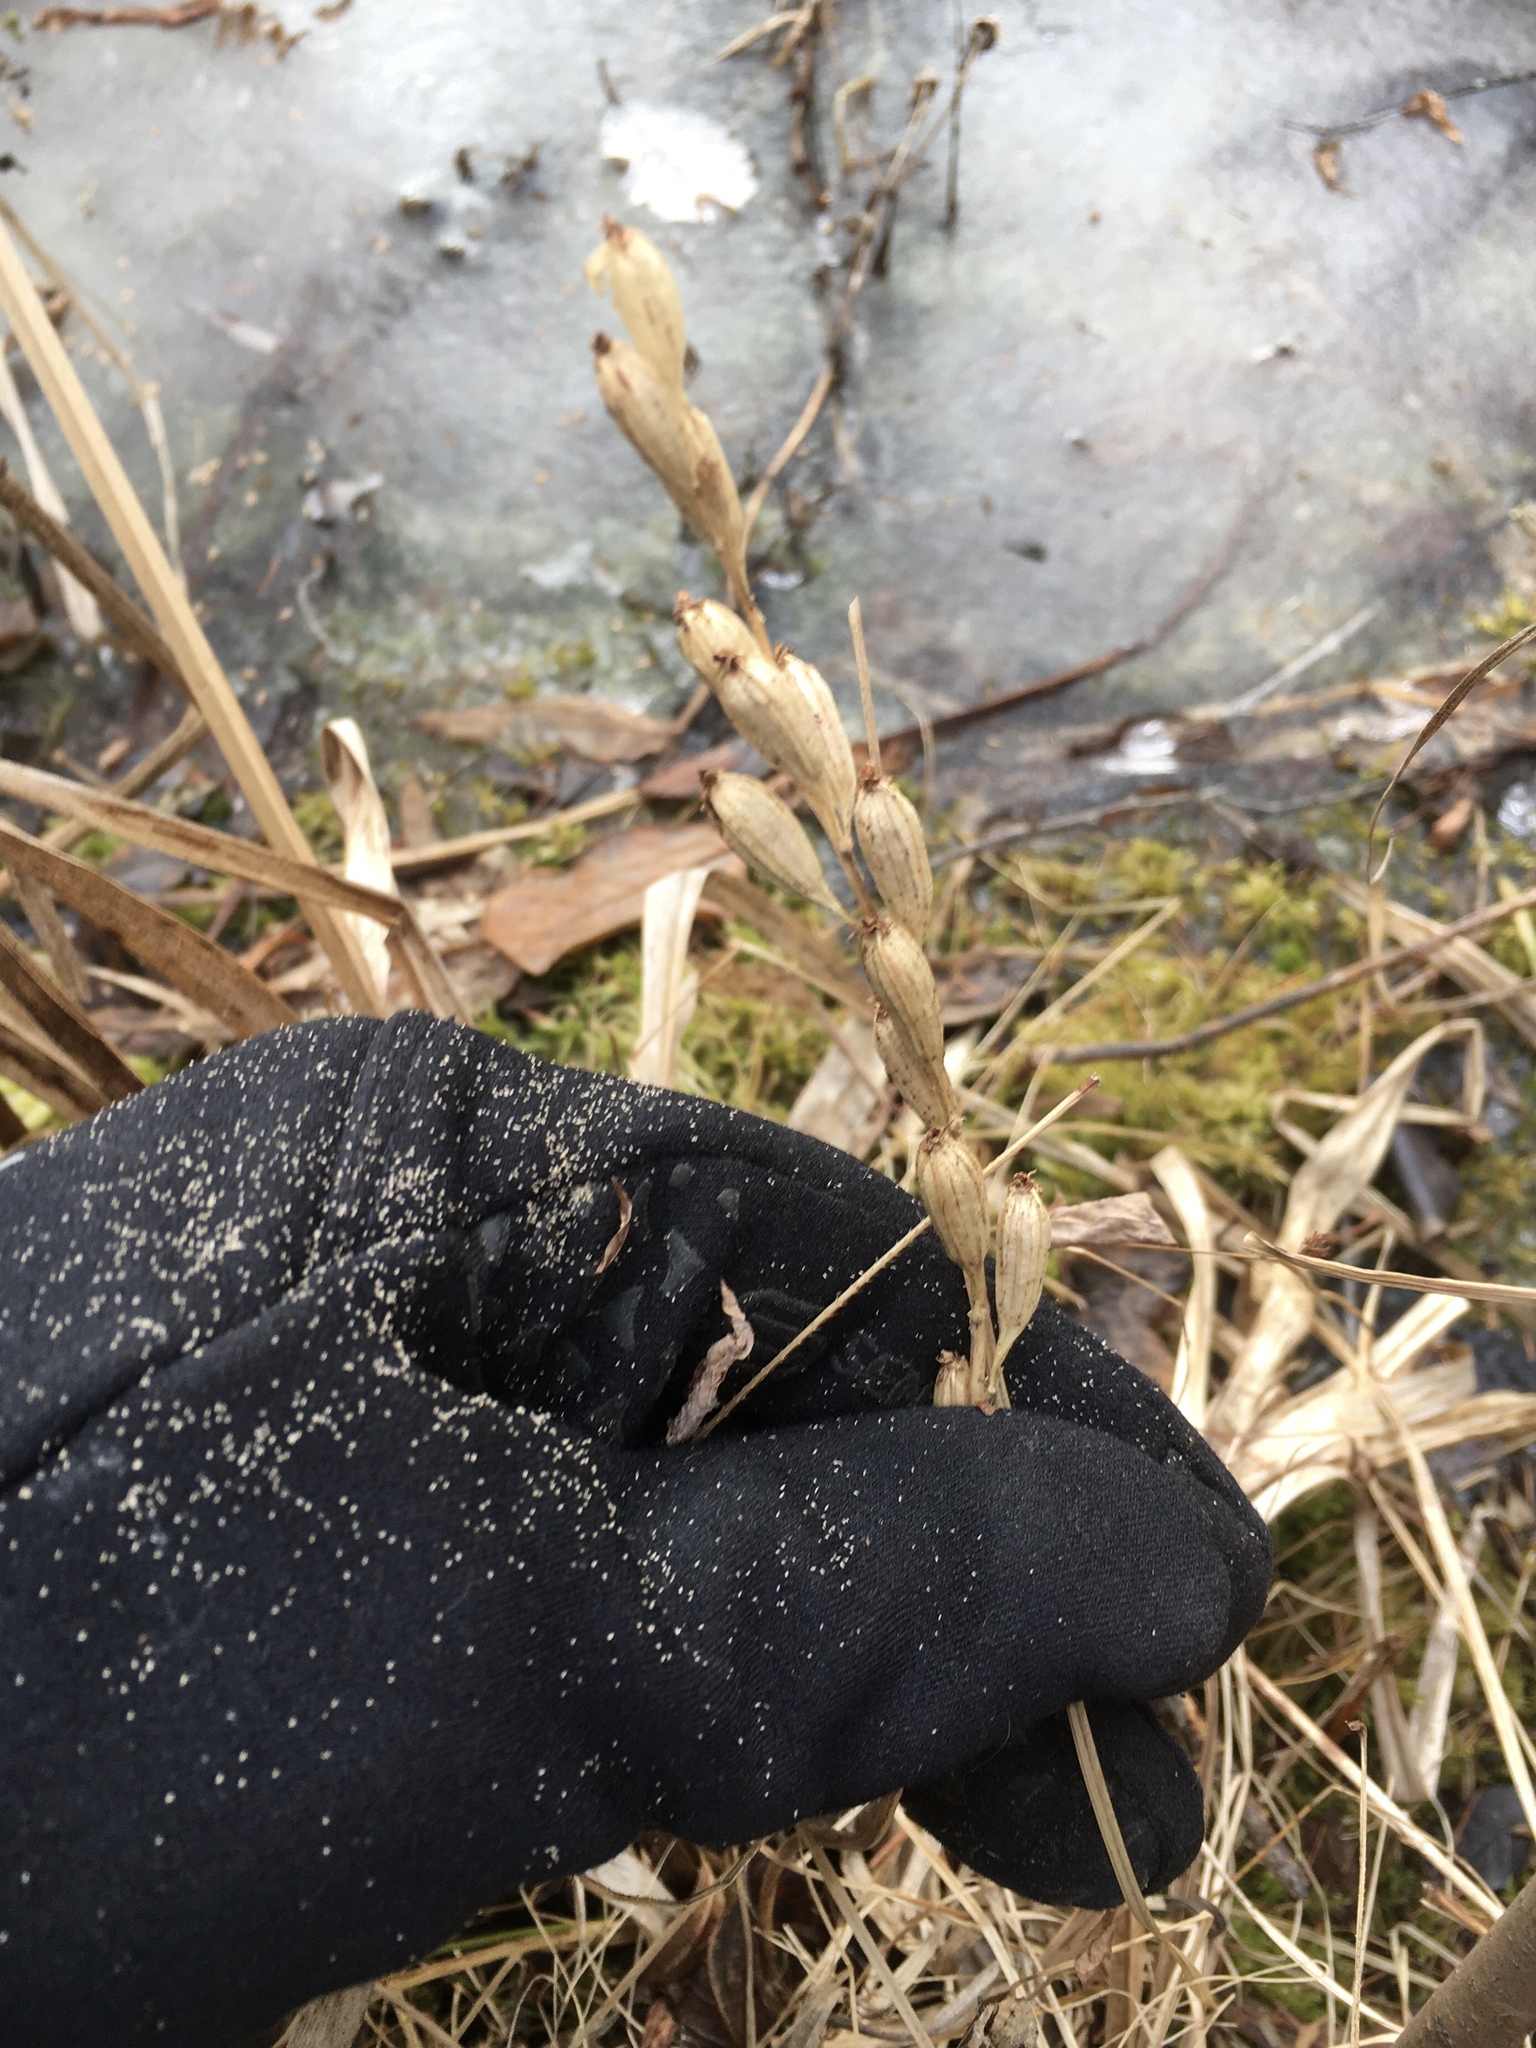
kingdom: Animalia
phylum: Arthropoda
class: Insecta
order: Coleoptera
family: Curculionidae
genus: Liparis
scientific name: Liparis loeselii
